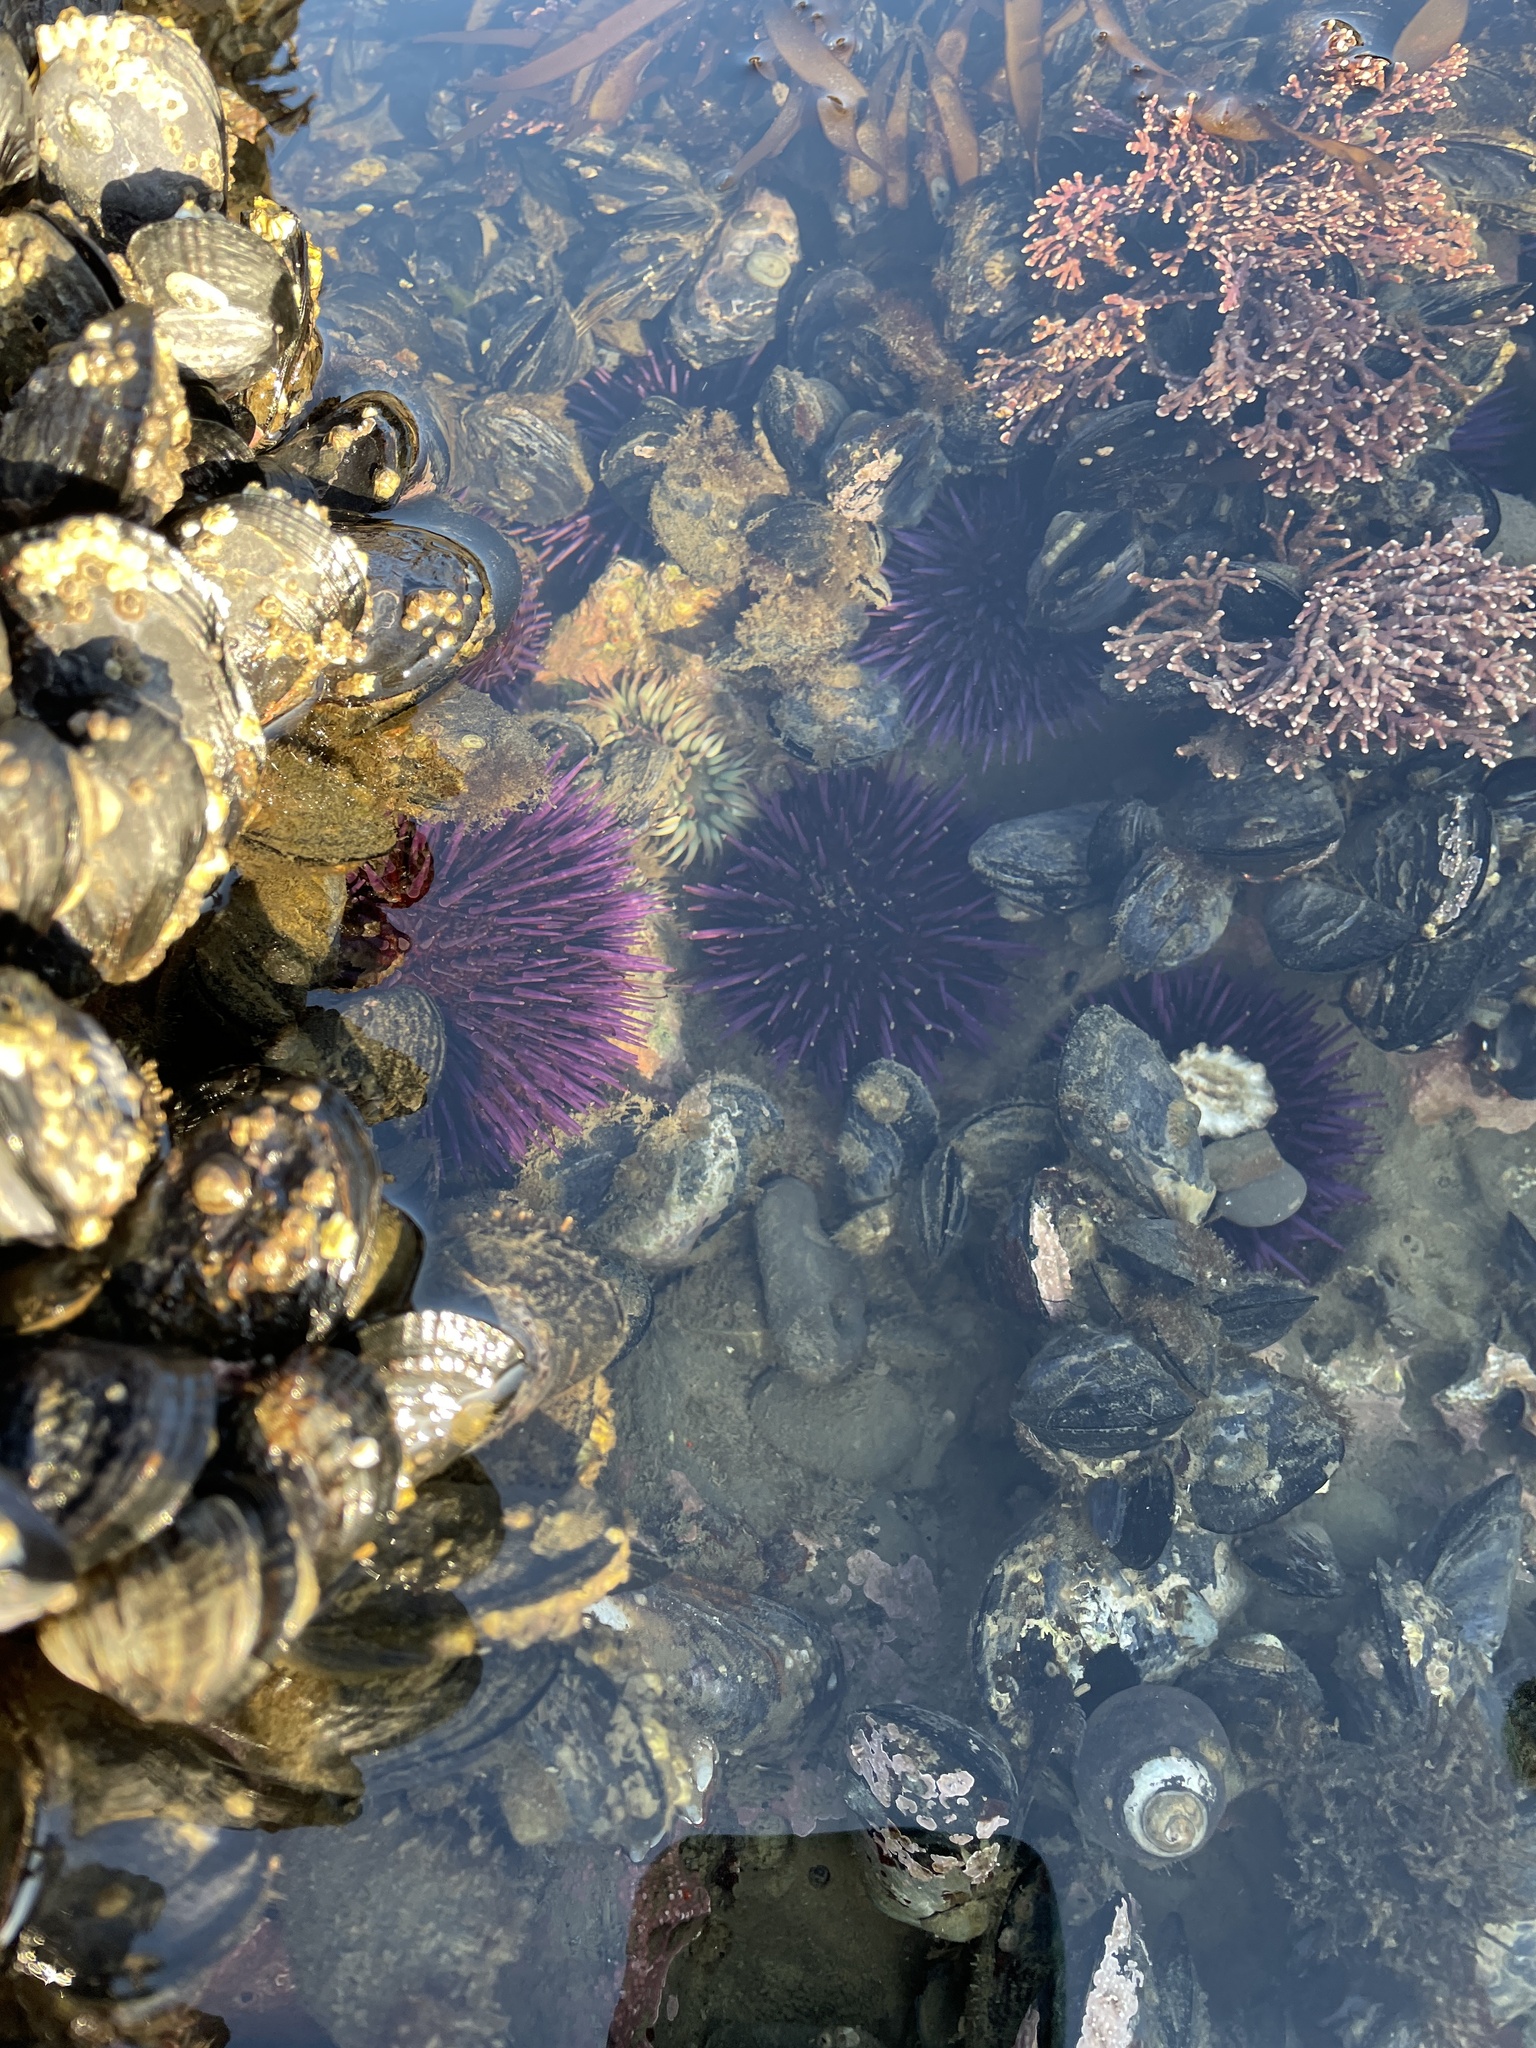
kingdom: Animalia
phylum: Echinodermata
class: Echinoidea
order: Camarodonta
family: Strongylocentrotidae
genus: Strongylocentrotus
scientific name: Strongylocentrotus purpuratus
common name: Purple sea urchin
